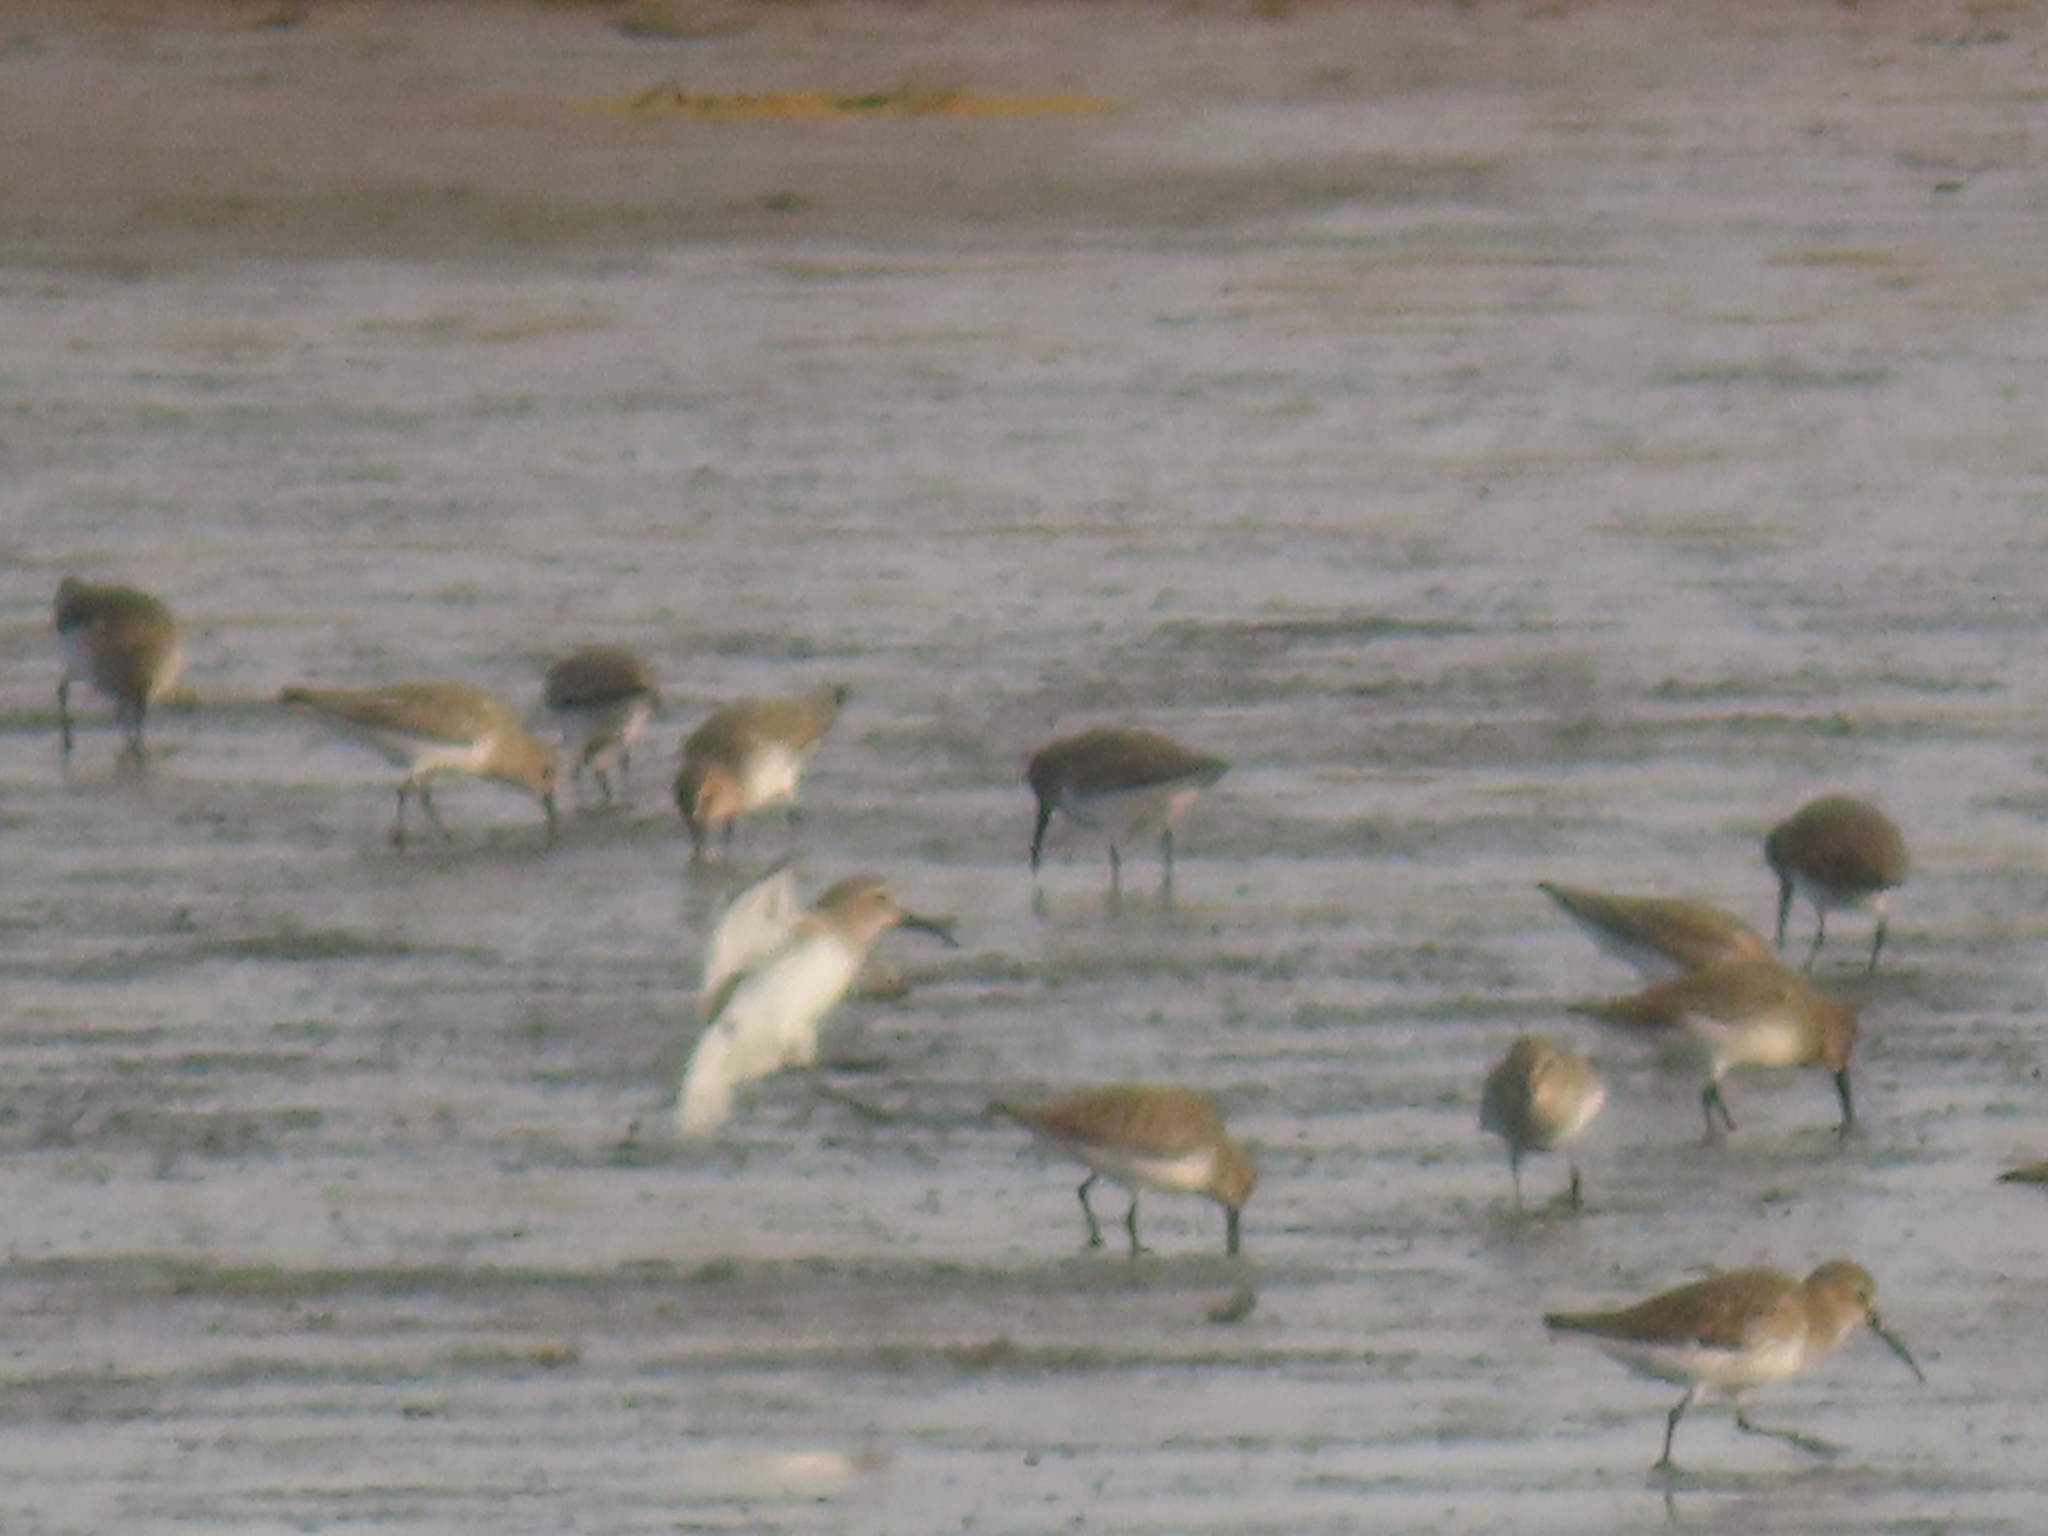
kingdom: Animalia
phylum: Chordata
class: Aves
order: Charadriiformes
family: Scolopacidae
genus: Calidris
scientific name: Calidris alpina
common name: Dunlin
